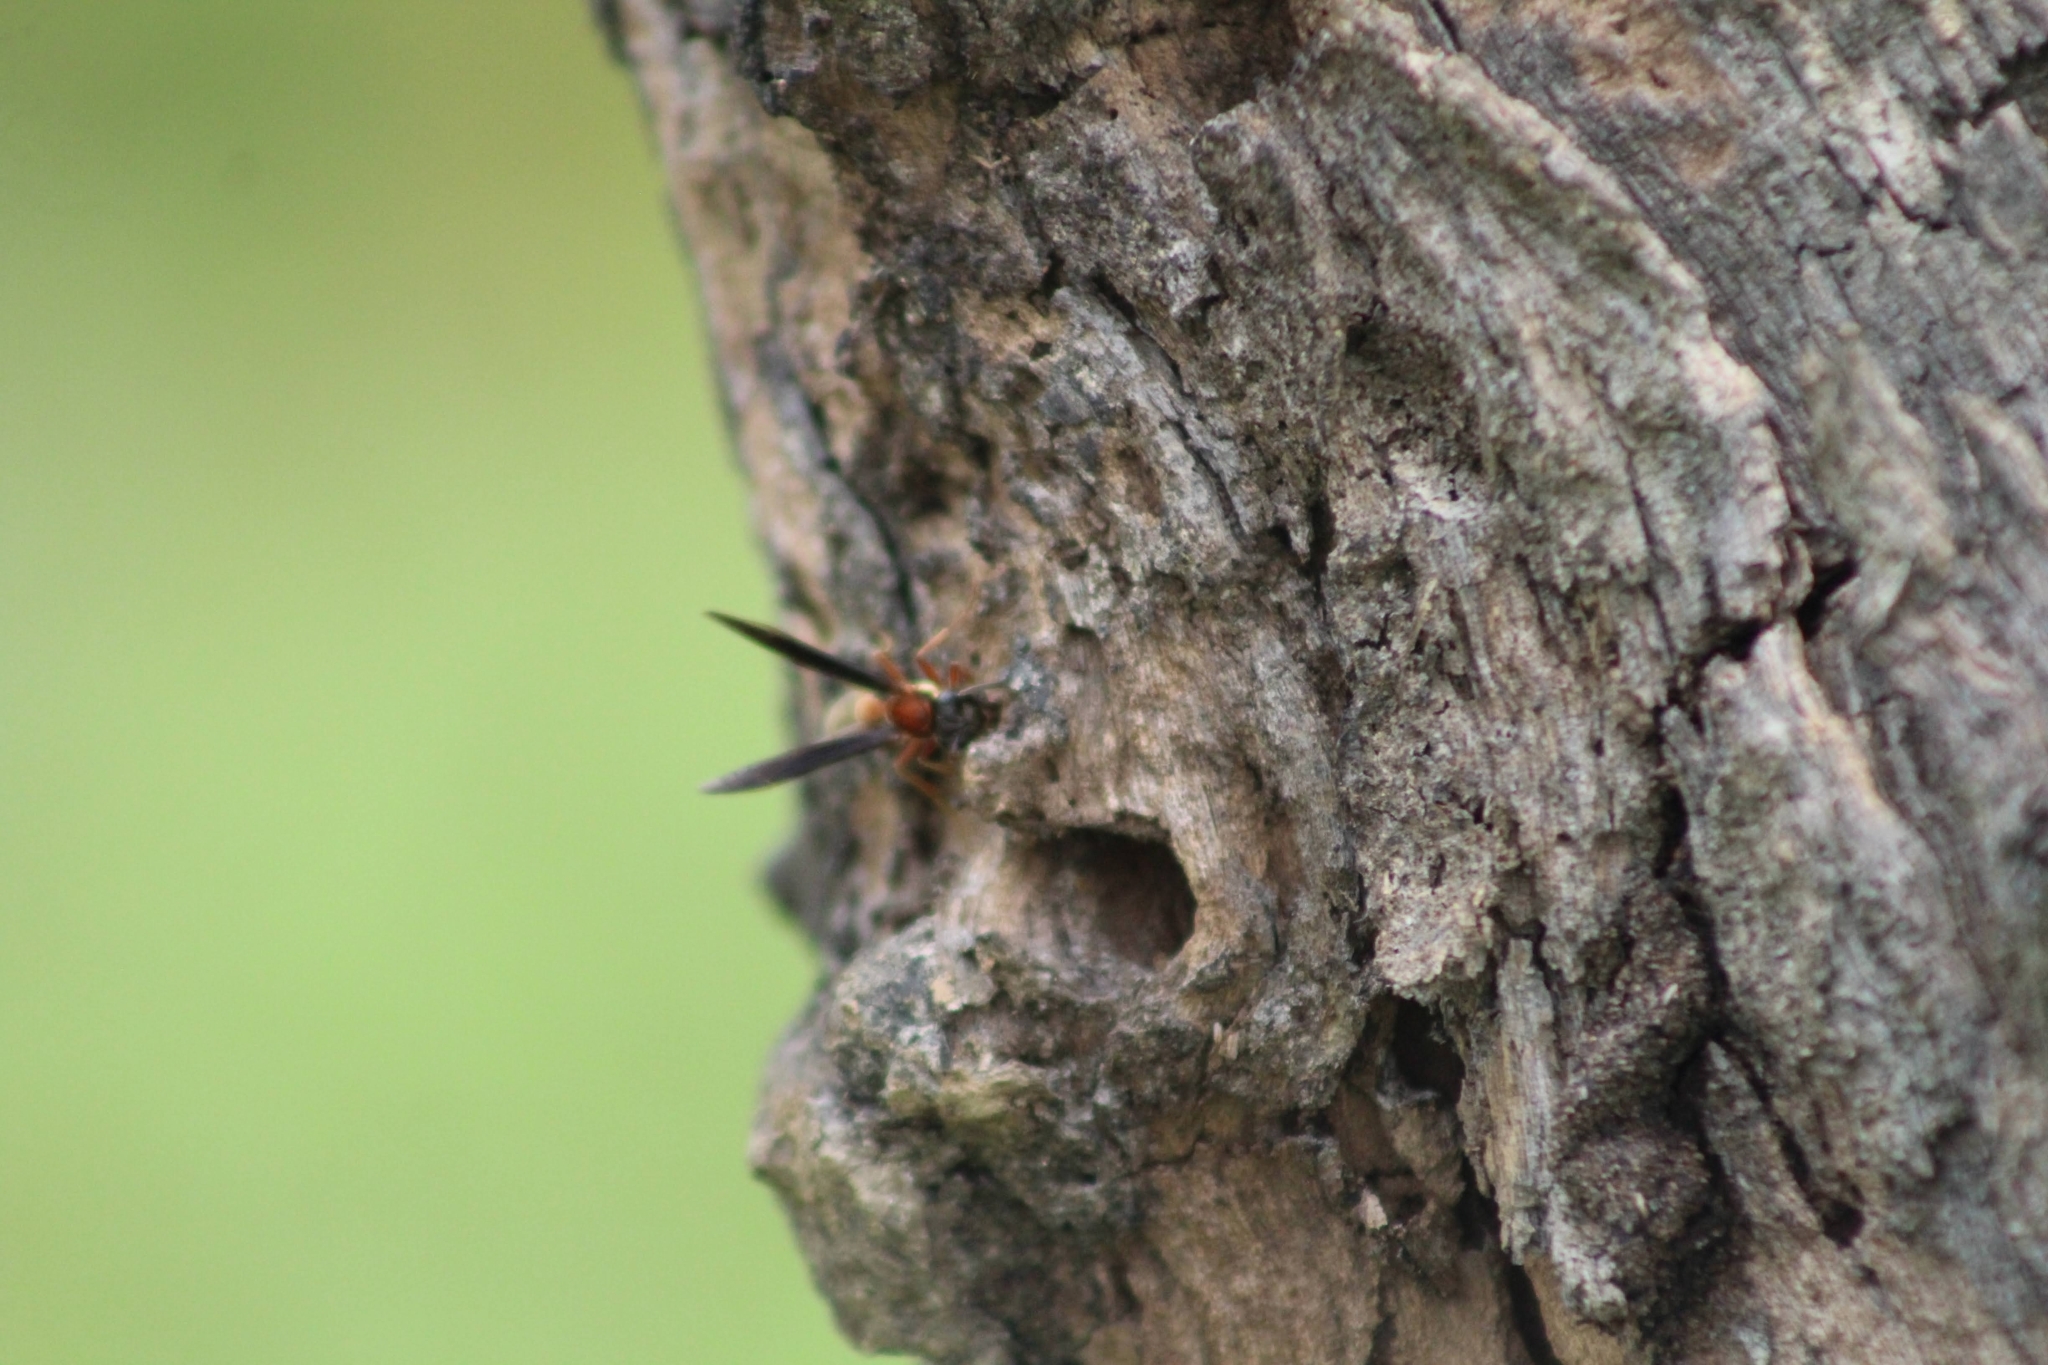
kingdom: Animalia
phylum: Arthropoda
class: Insecta
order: Hymenoptera
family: Eumenidae
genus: Polybia
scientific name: Polybia sericea
